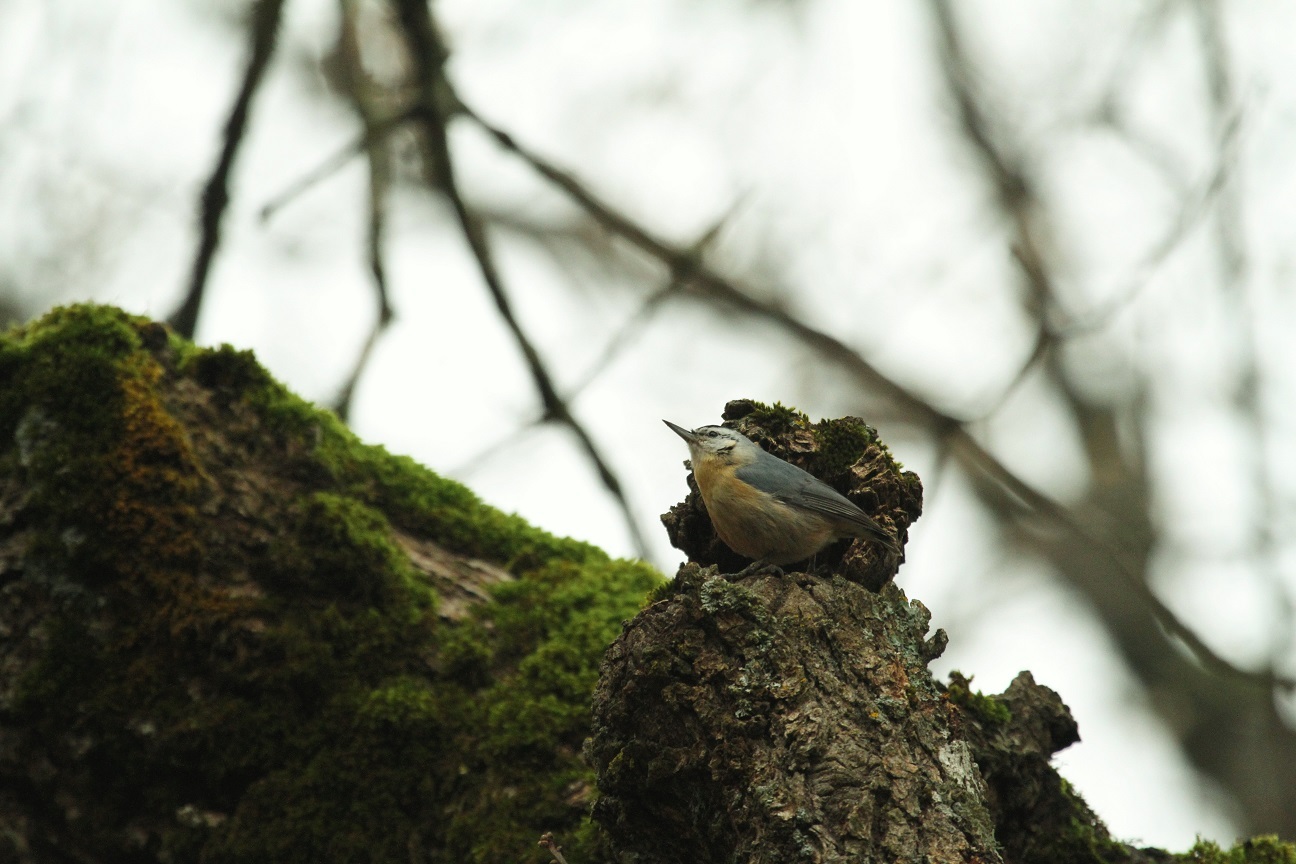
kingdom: Animalia
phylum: Chordata
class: Aves
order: Passeriformes
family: Sittidae
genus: Sitta
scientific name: Sitta ledanti
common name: Algerian nuthatch
